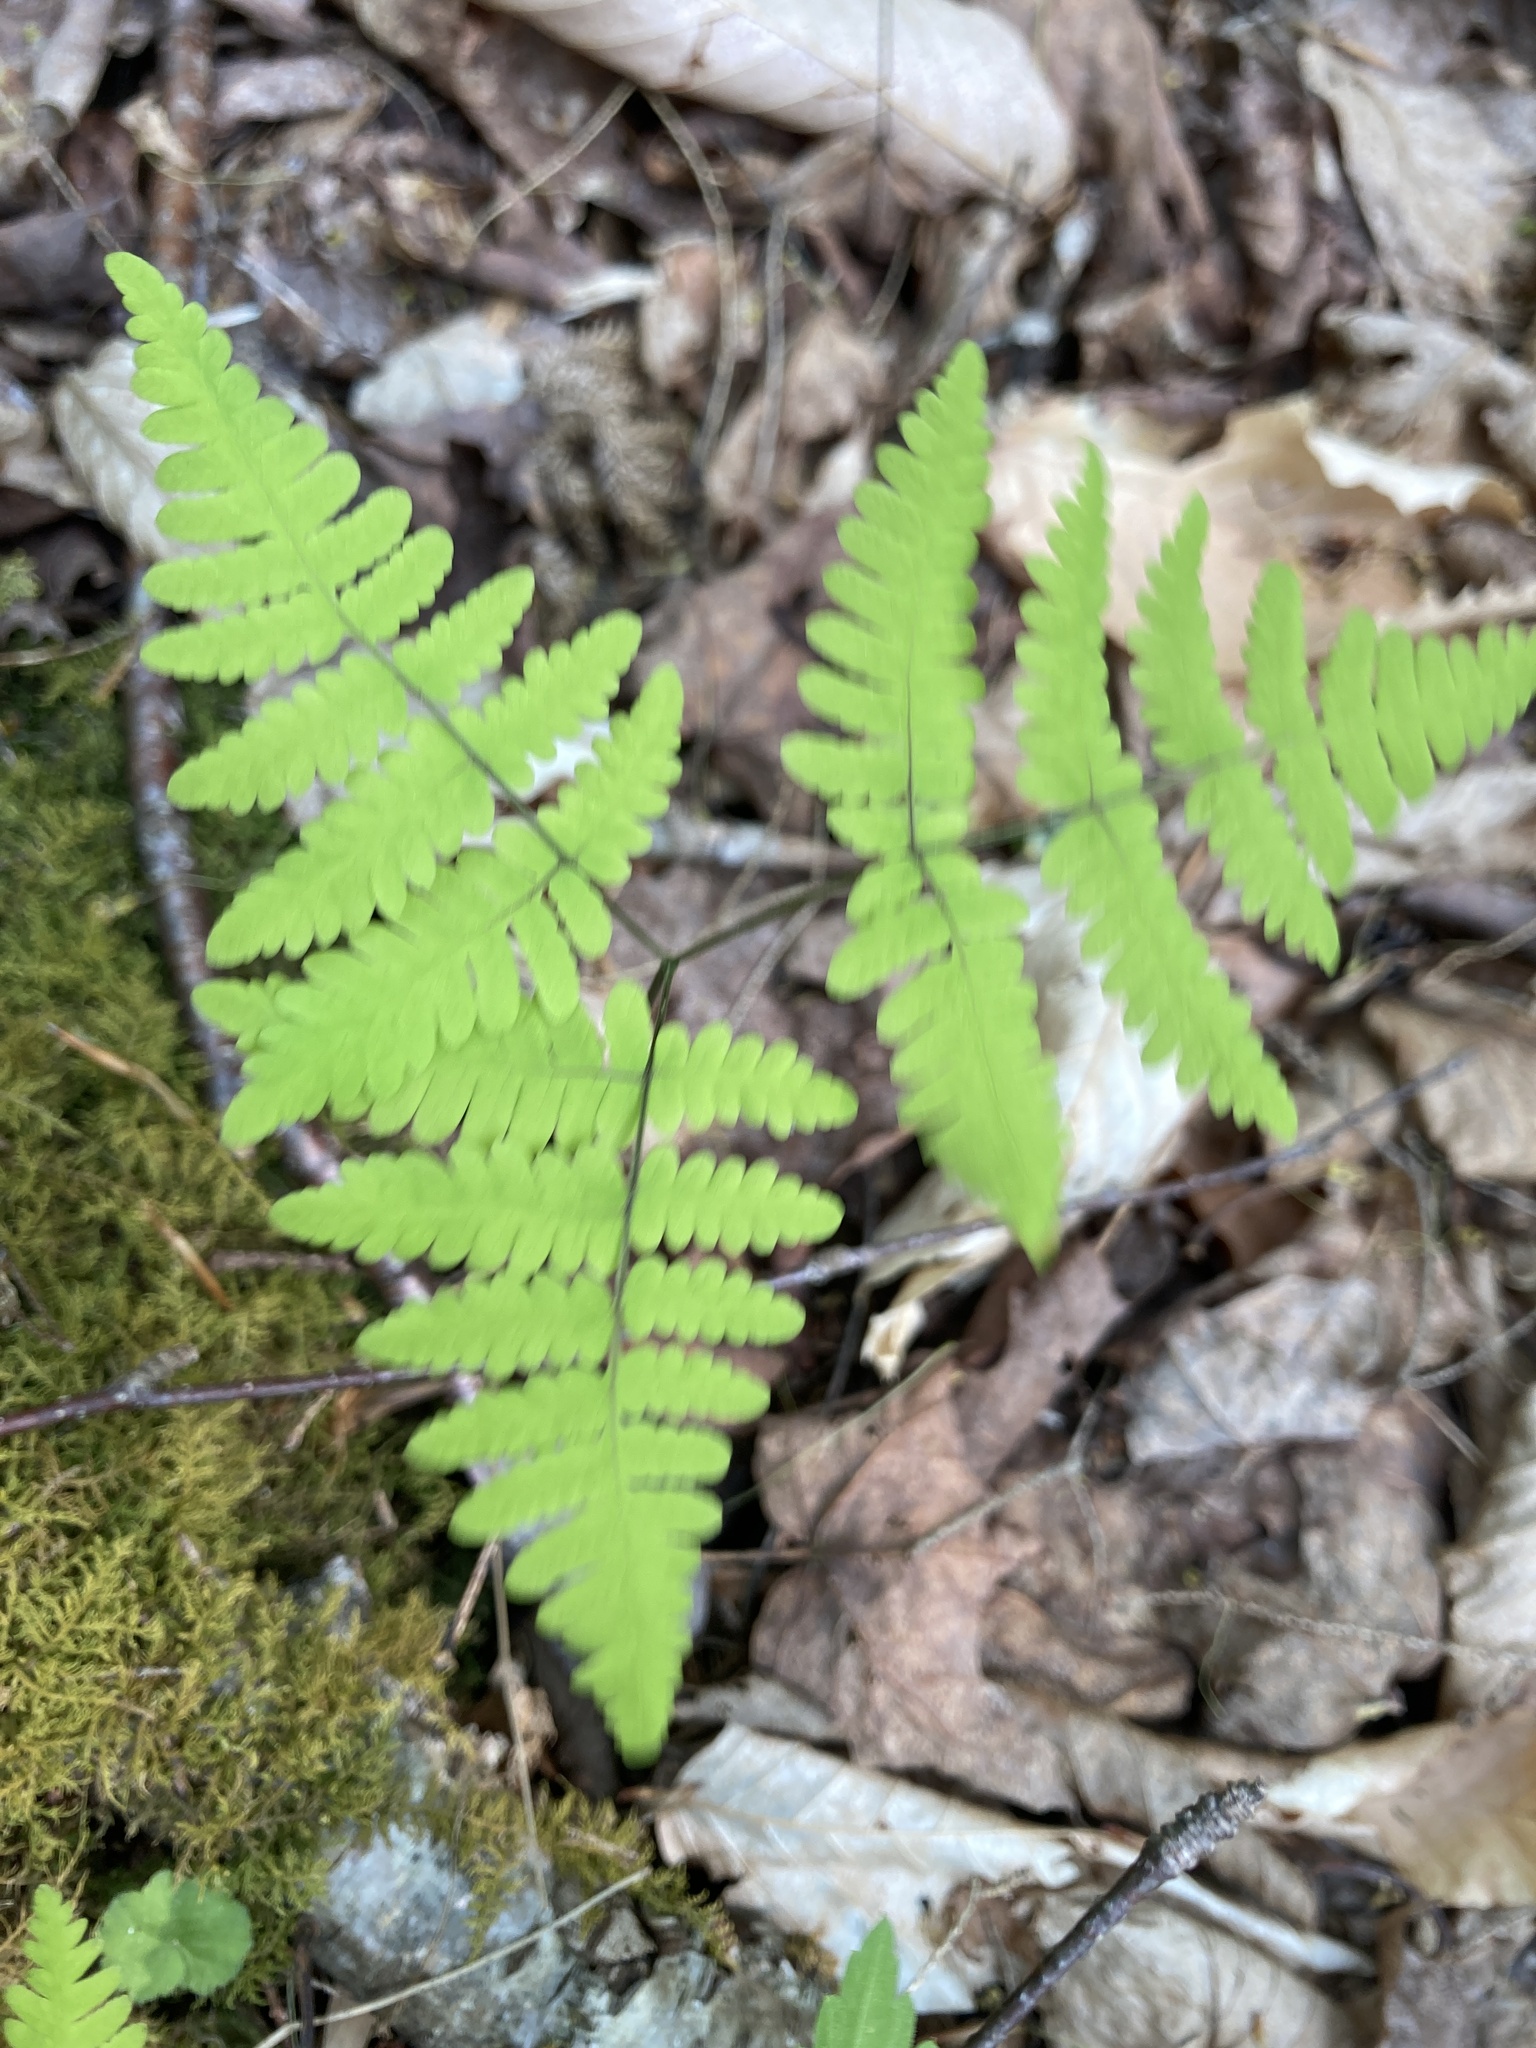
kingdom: Plantae
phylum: Tracheophyta
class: Polypodiopsida
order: Polypodiales
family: Cystopteridaceae
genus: Gymnocarpium
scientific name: Gymnocarpium dryopteris
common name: Oak fern
